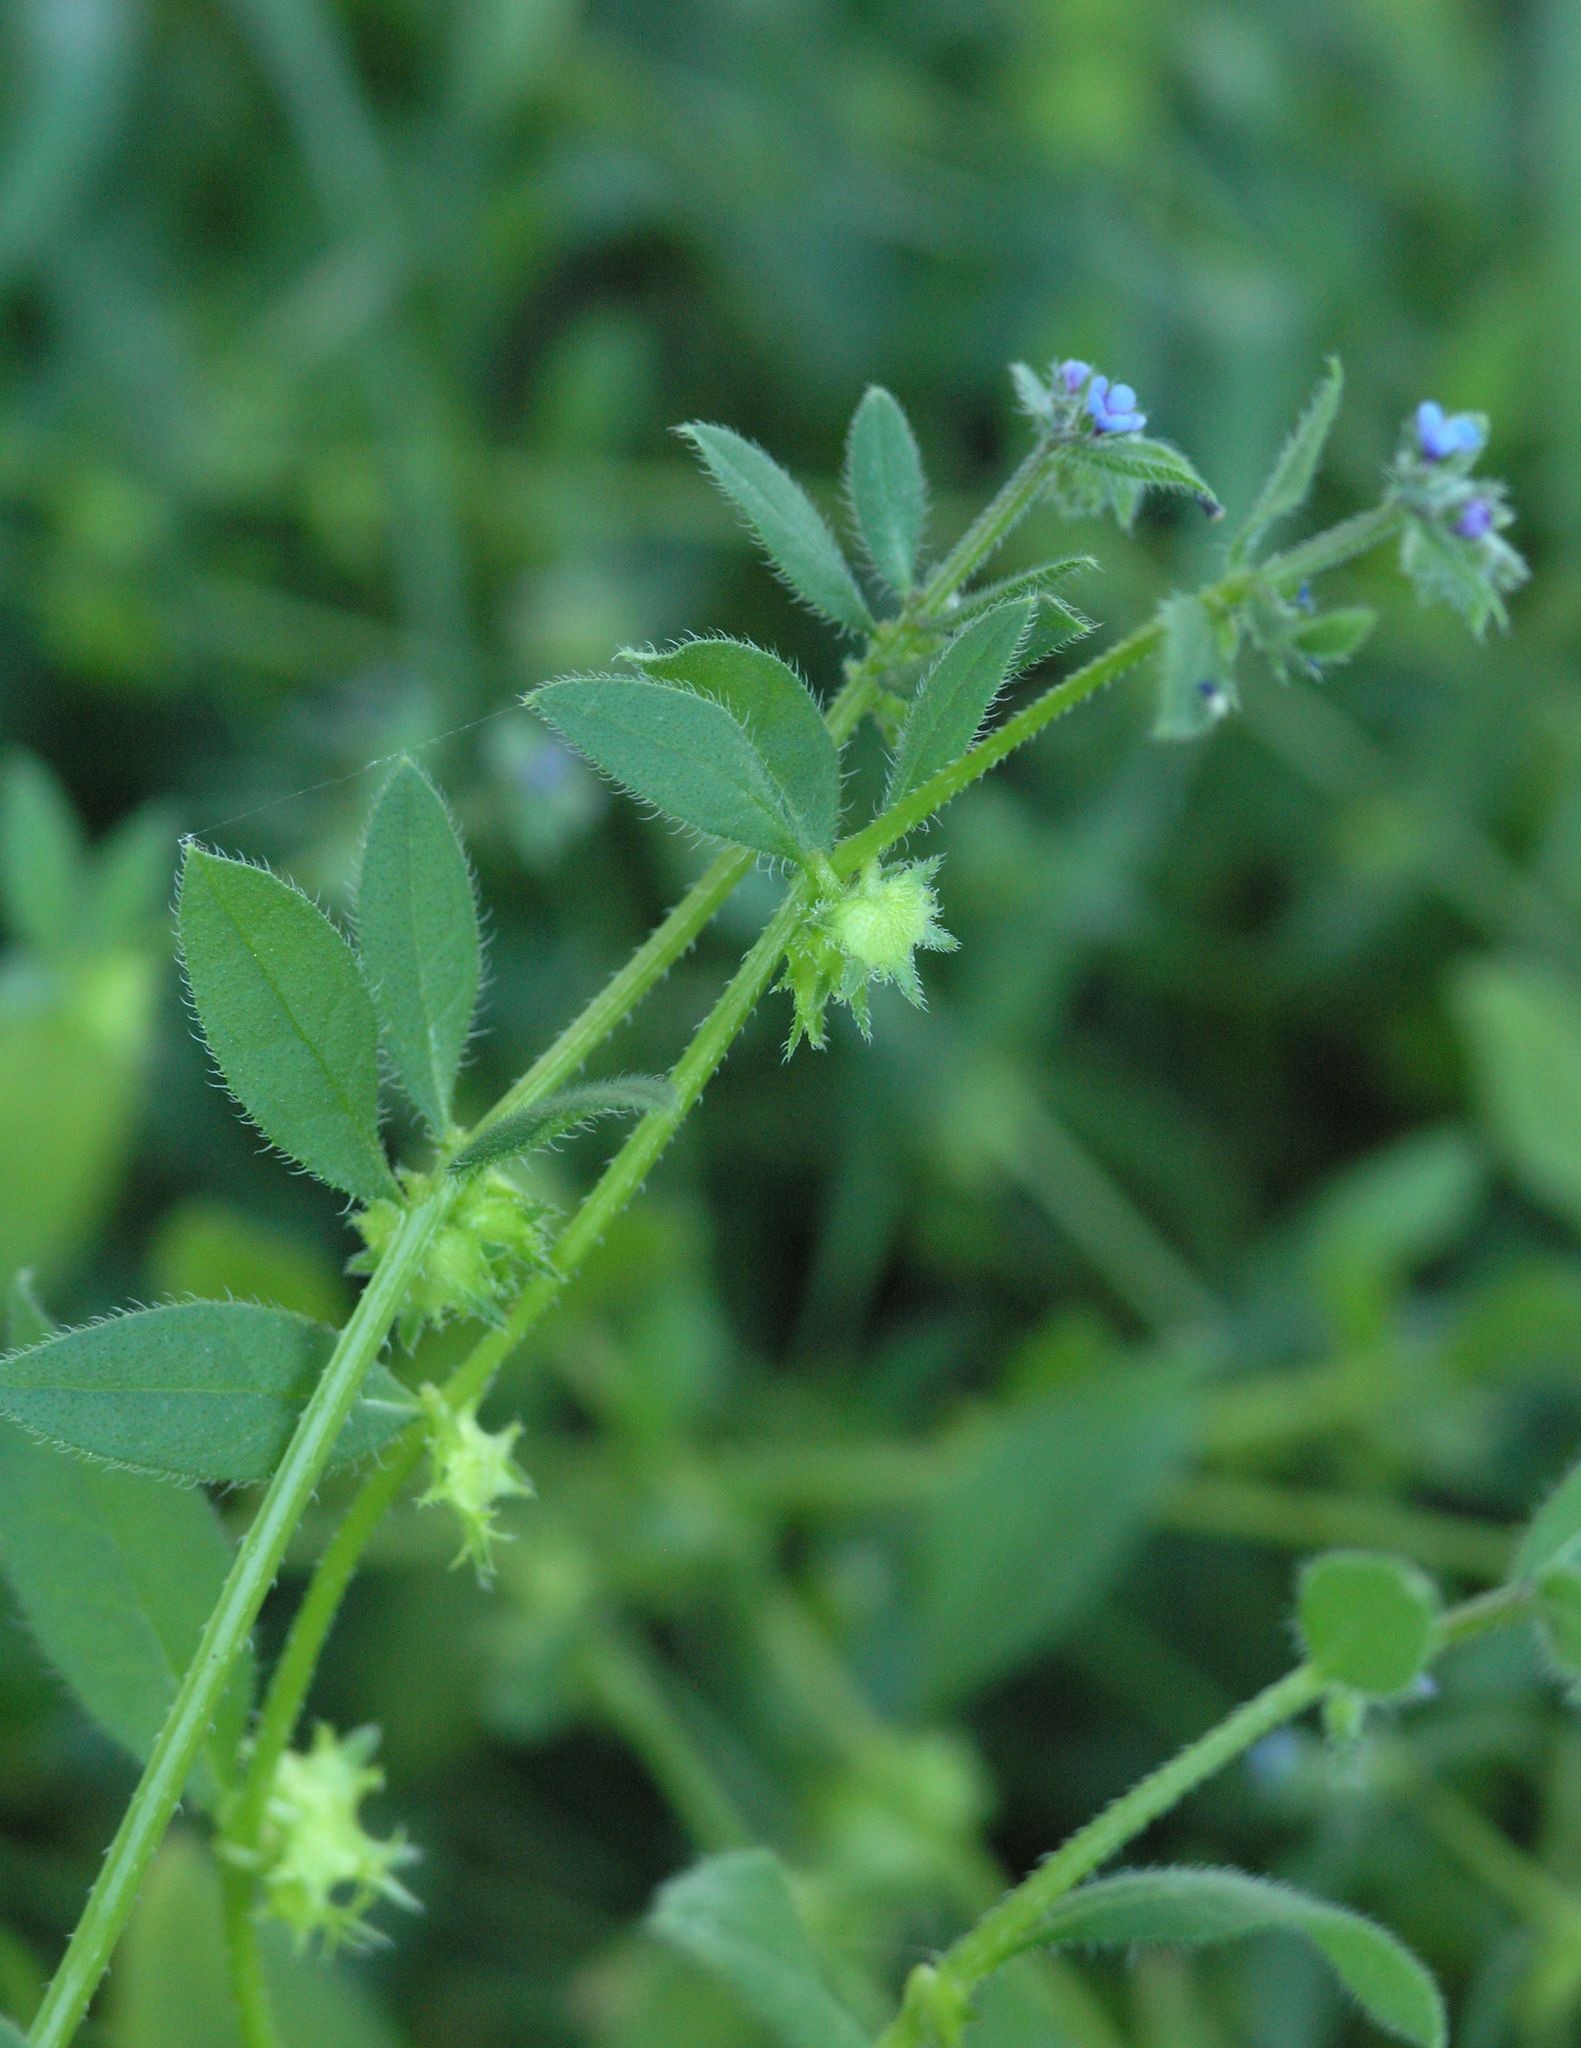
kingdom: Plantae
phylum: Tracheophyta
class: Magnoliopsida
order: Boraginales
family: Boraginaceae
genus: Asperugo
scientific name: Asperugo procumbens
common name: Madwort
